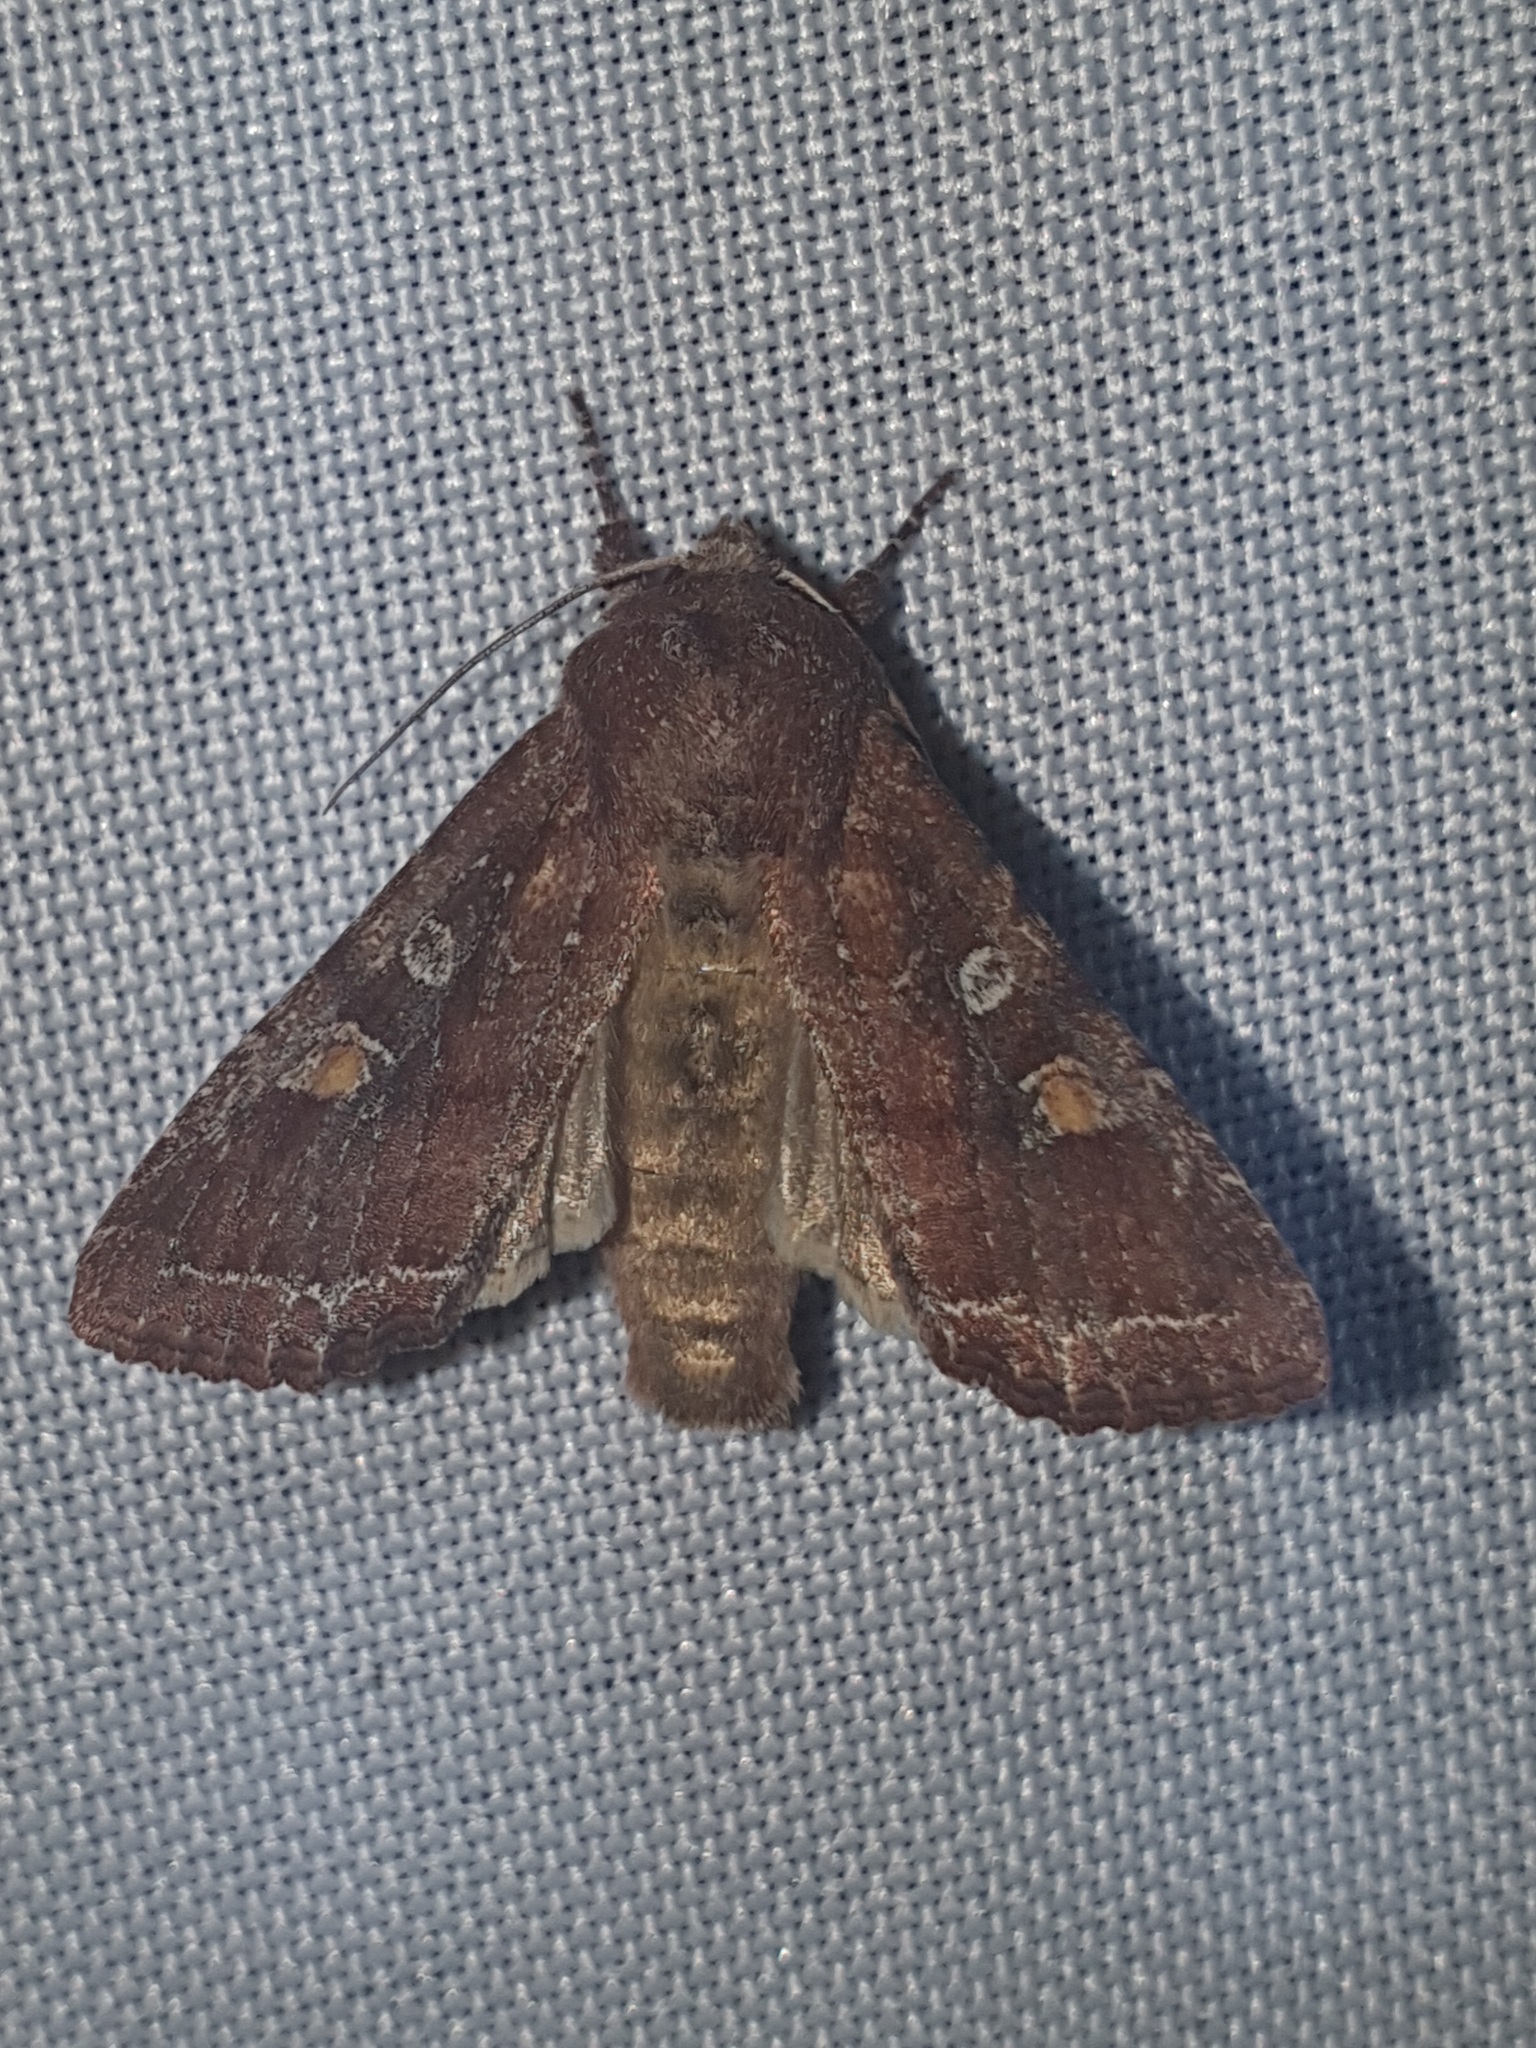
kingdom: Animalia
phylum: Arthropoda
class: Insecta
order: Lepidoptera
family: Noctuidae
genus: Lacanobia
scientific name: Lacanobia oleracea
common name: Bright-line brown-eye
